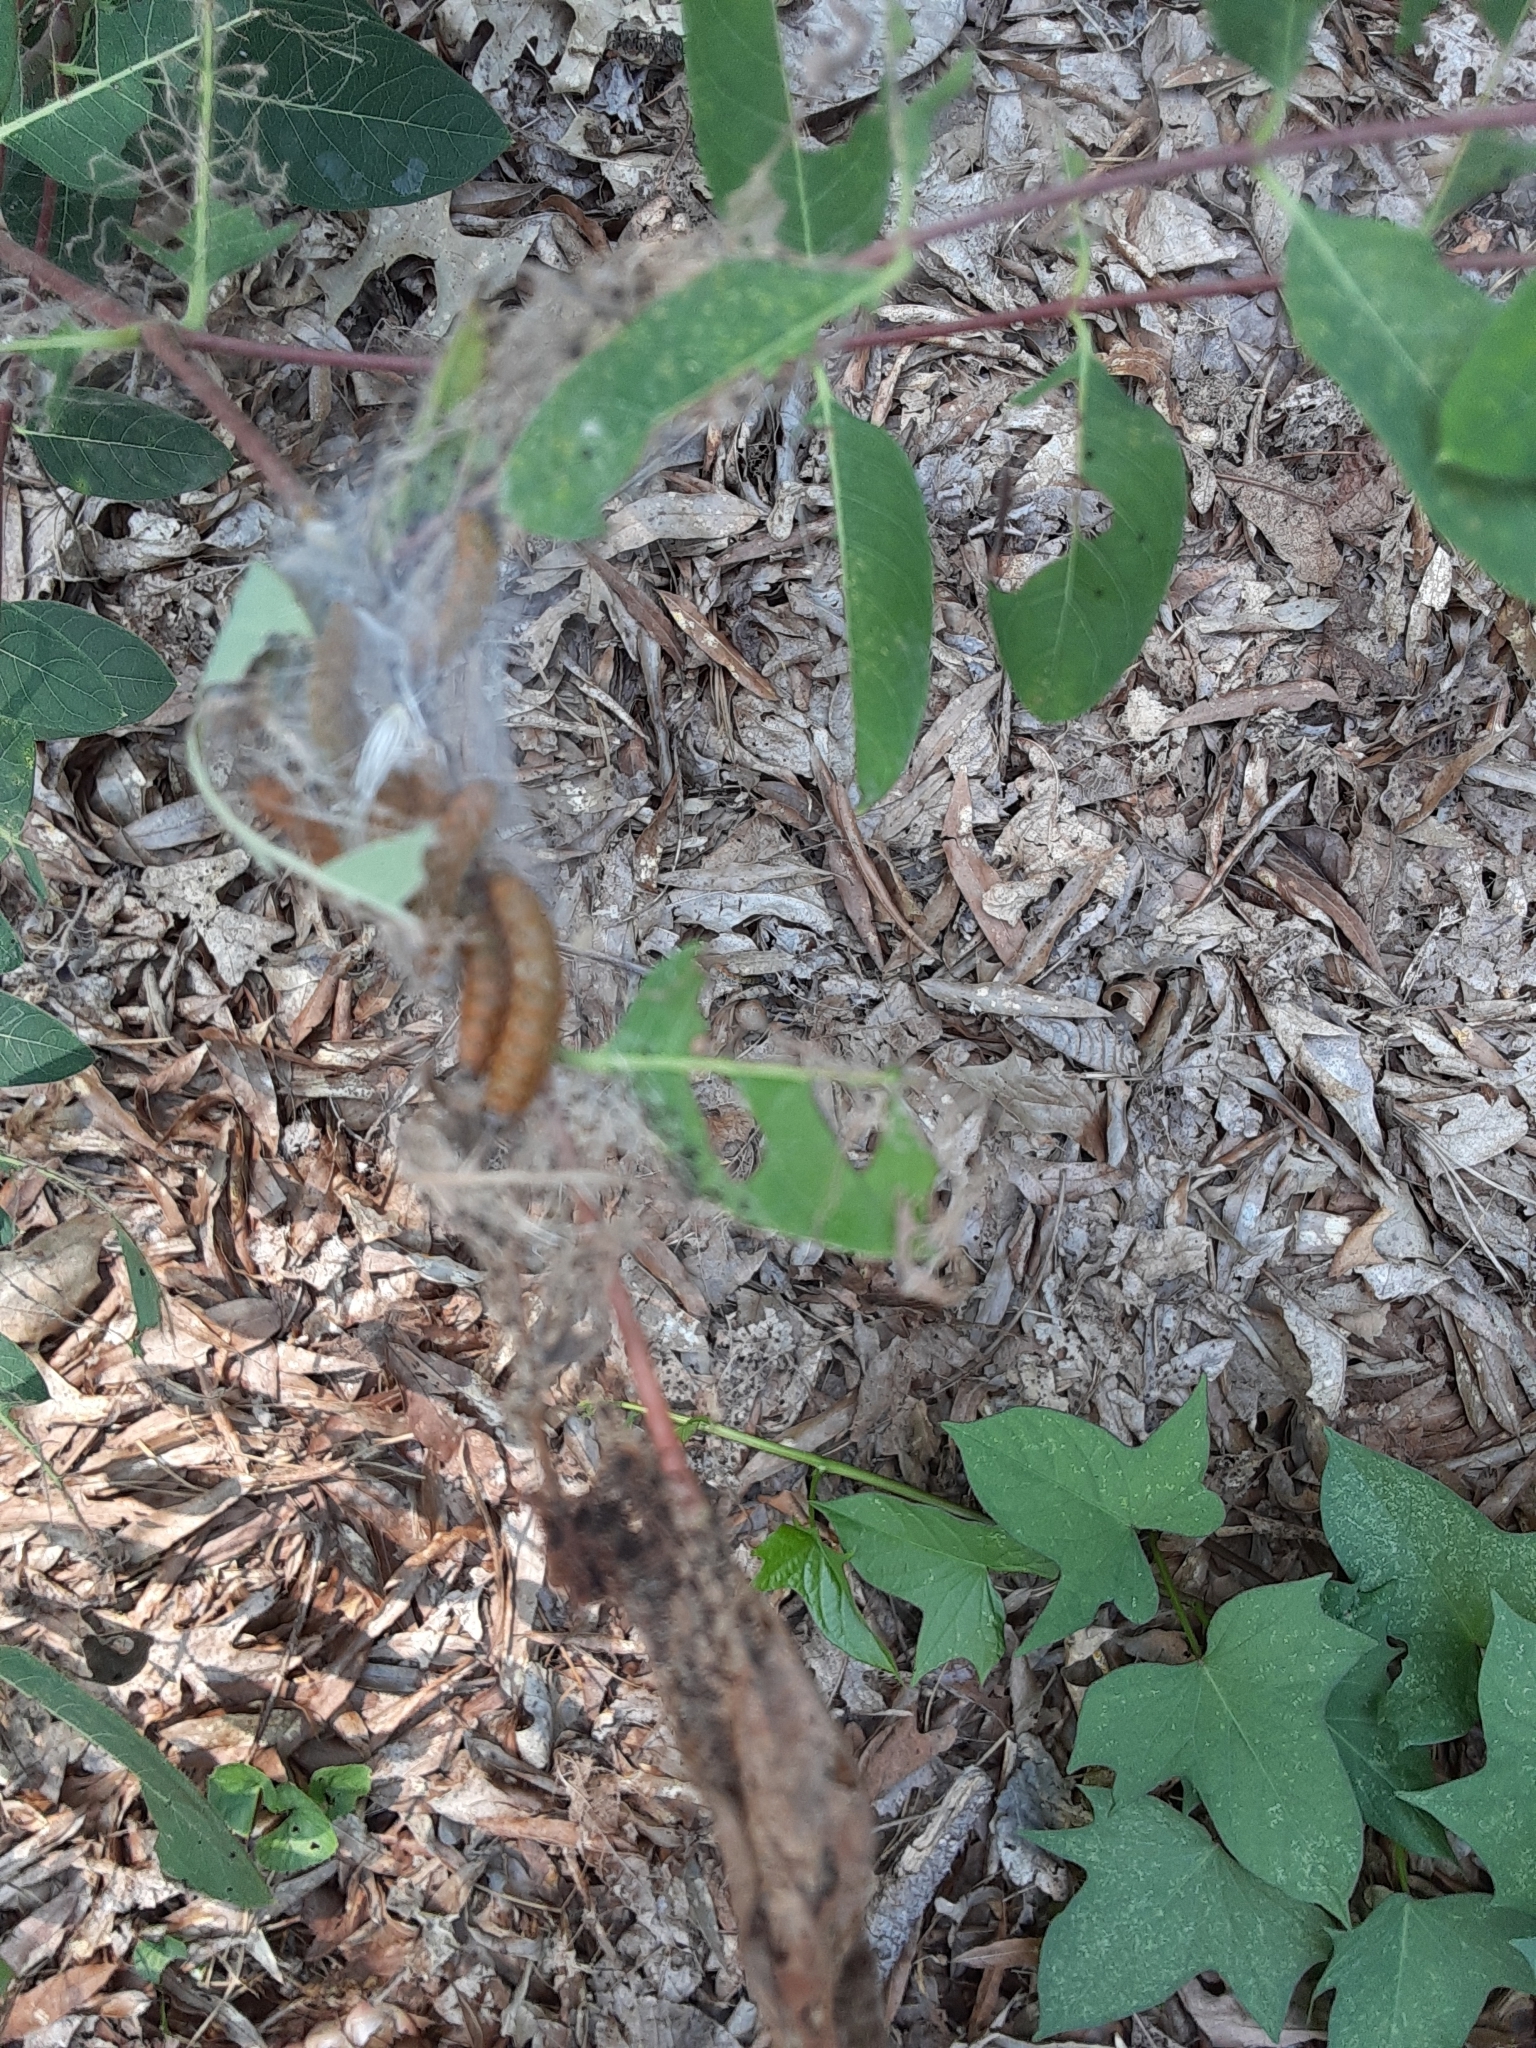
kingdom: Animalia
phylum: Arthropoda
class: Insecta
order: Lepidoptera
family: Crambidae
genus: Saucrobotys
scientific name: Saucrobotys futilalis
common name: Dogbane saucrobotys moth
